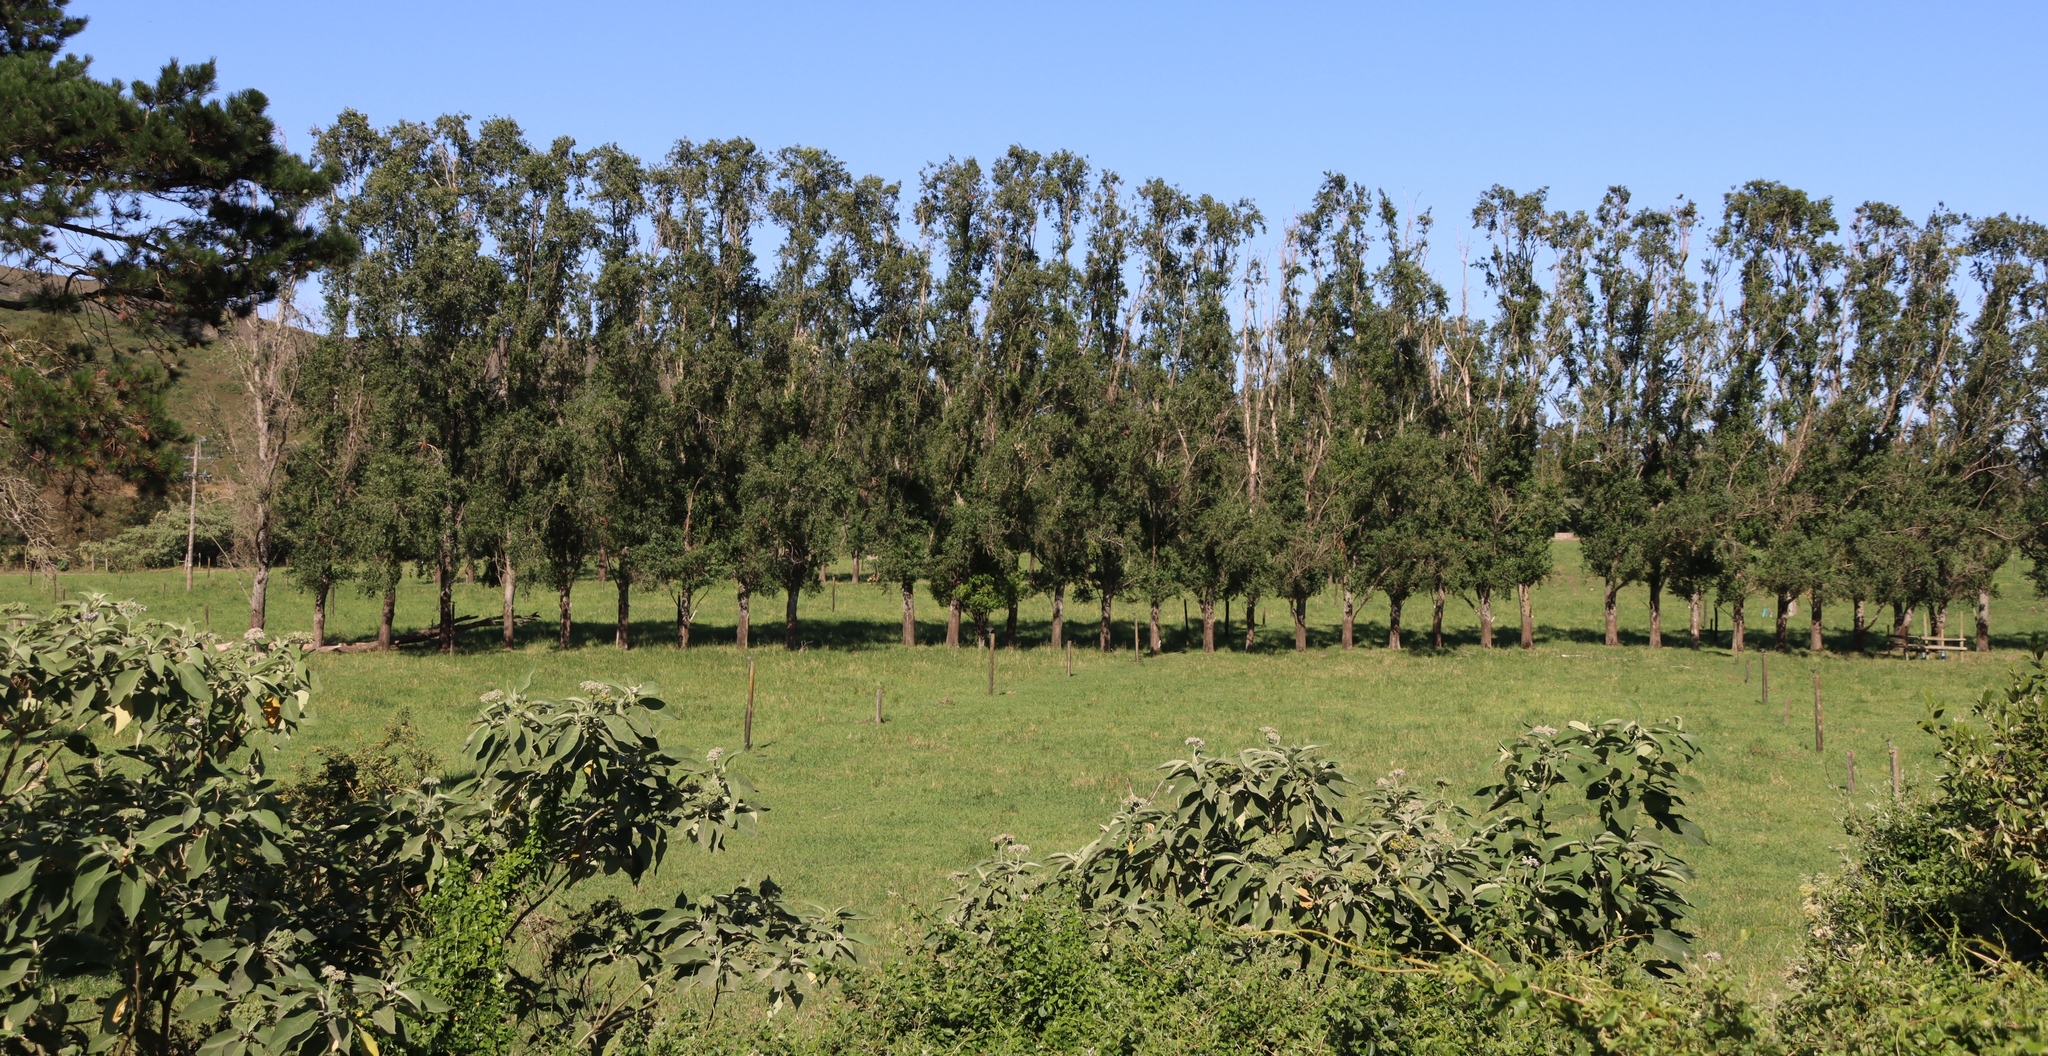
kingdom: Plantae
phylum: Tracheophyta
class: Magnoliopsida
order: Solanales
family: Solanaceae
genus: Solanum
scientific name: Solanum mauritianum
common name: Earleaf nightshade
